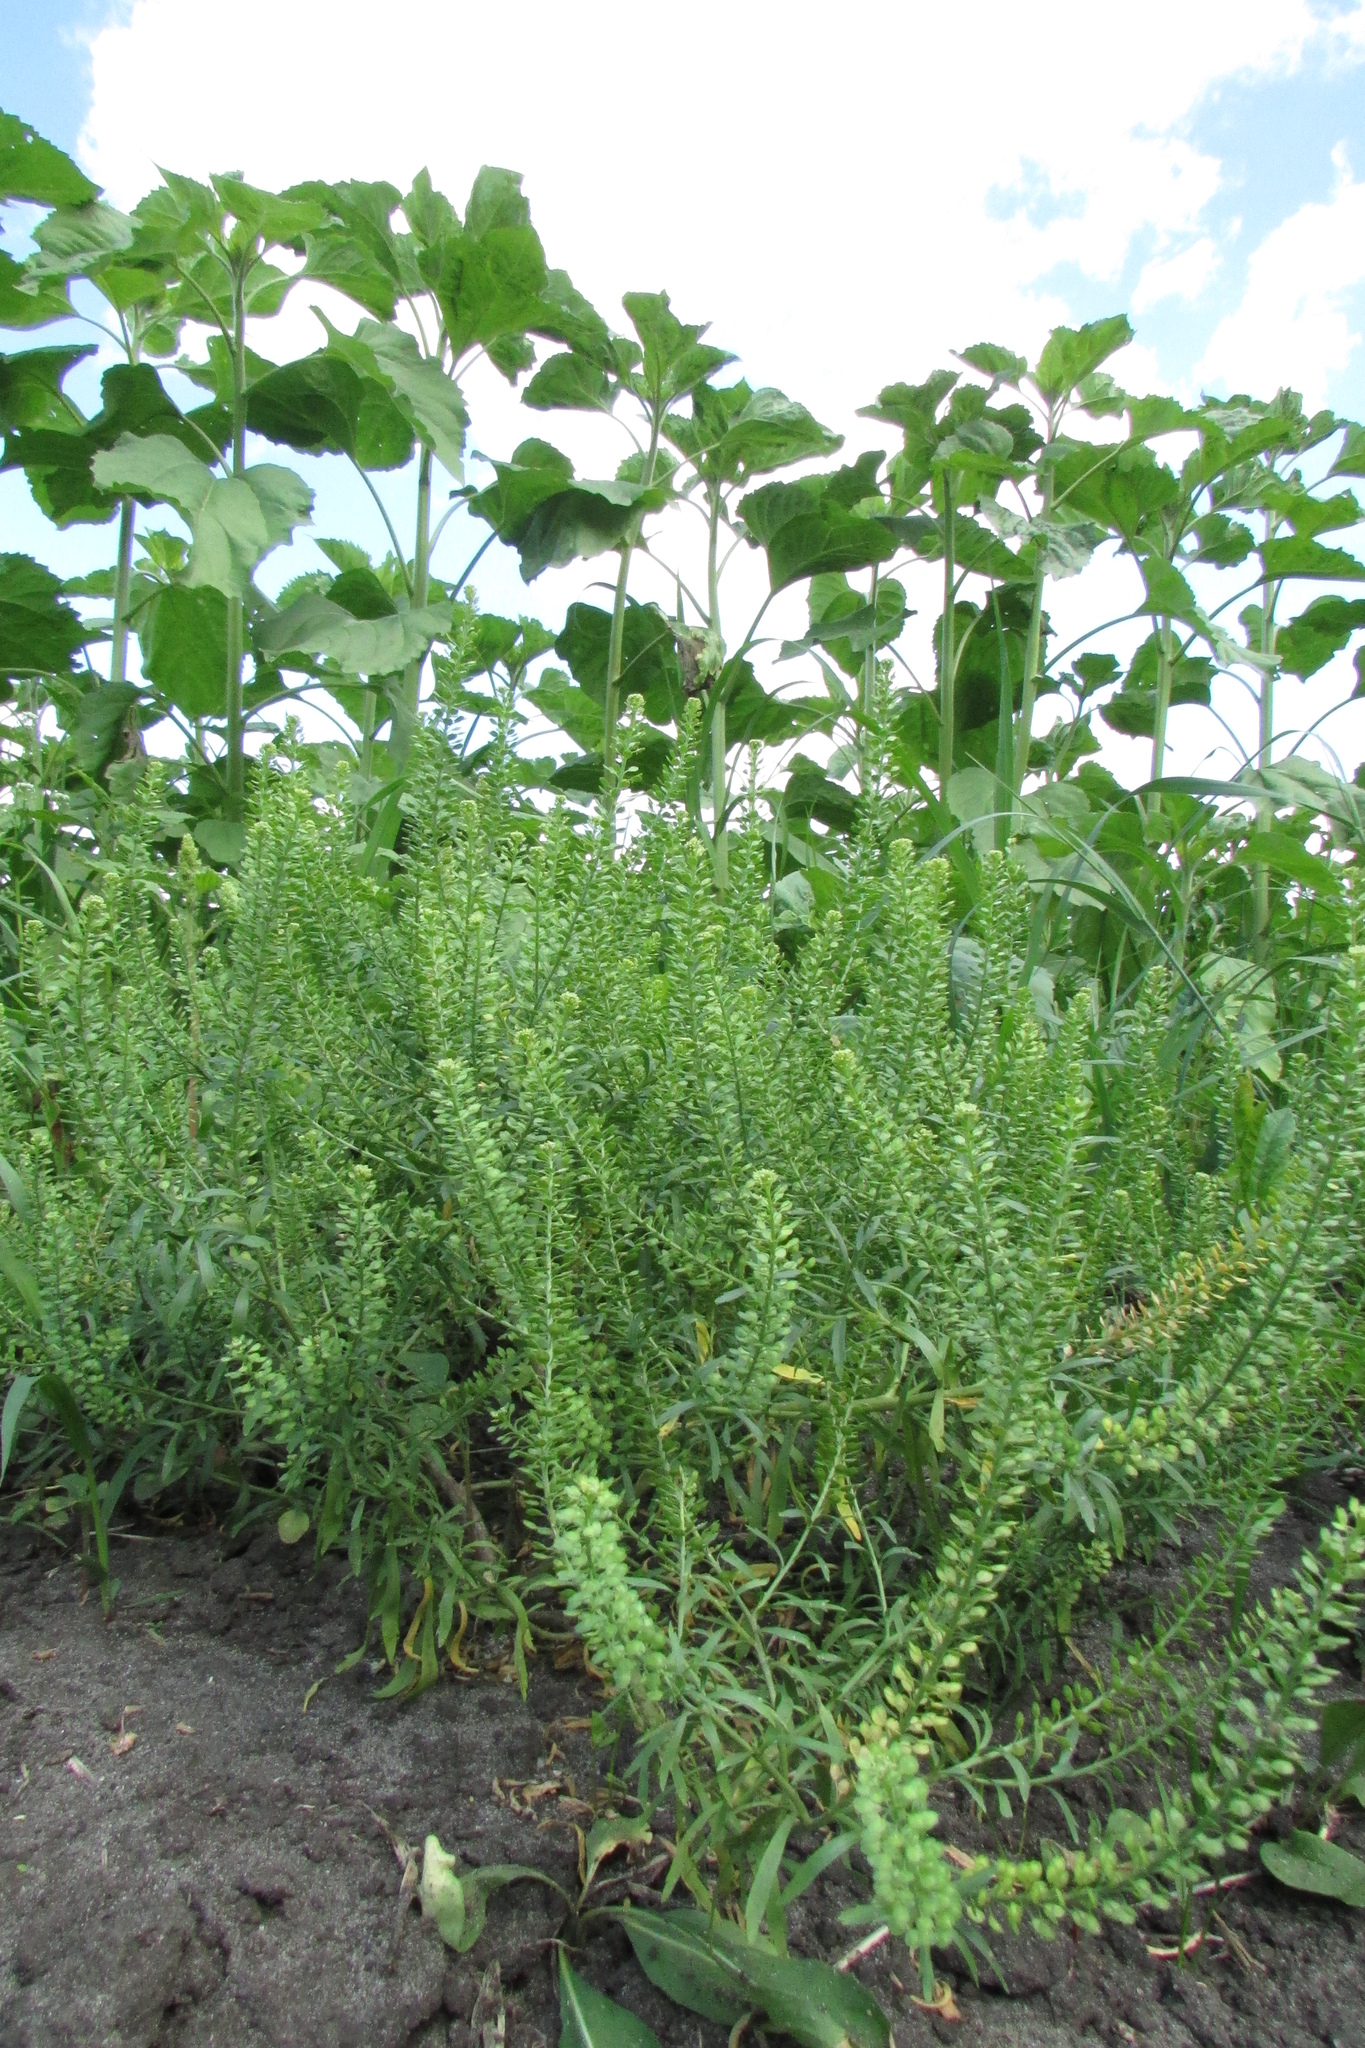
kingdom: Plantae
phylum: Tracheophyta
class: Magnoliopsida
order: Brassicales
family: Brassicaceae
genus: Lepidium
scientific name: Lepidium densiflorum
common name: Miner's pepperwort
